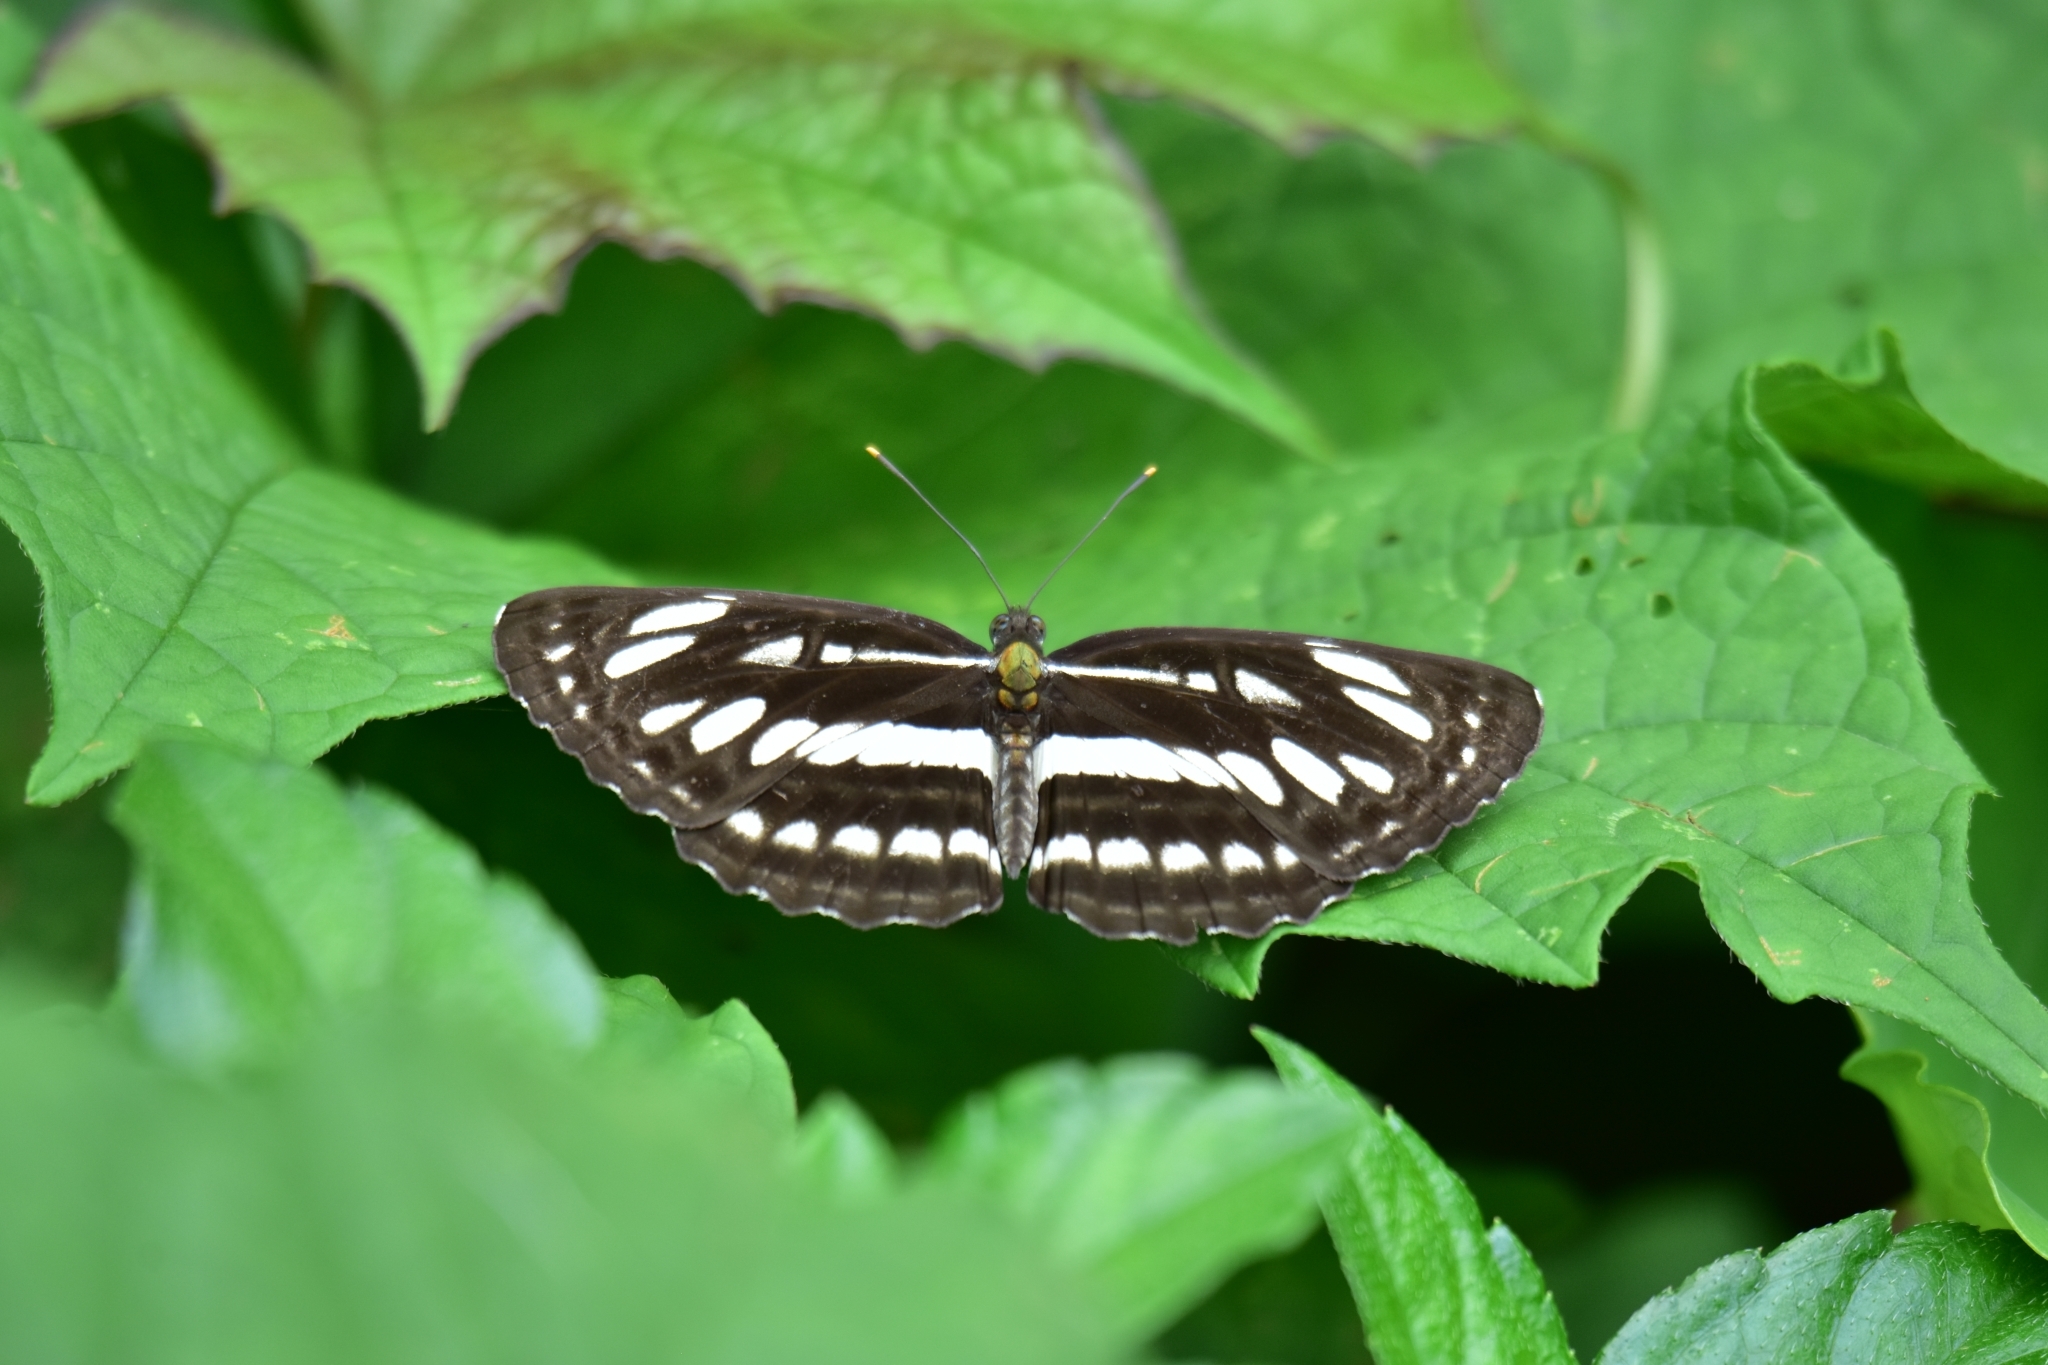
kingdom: Animalia
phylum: Arthropoda
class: Insecta
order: Lepidoptera
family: Nymphalidae
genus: Neptis
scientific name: Neptis hylas
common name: Common sailer
